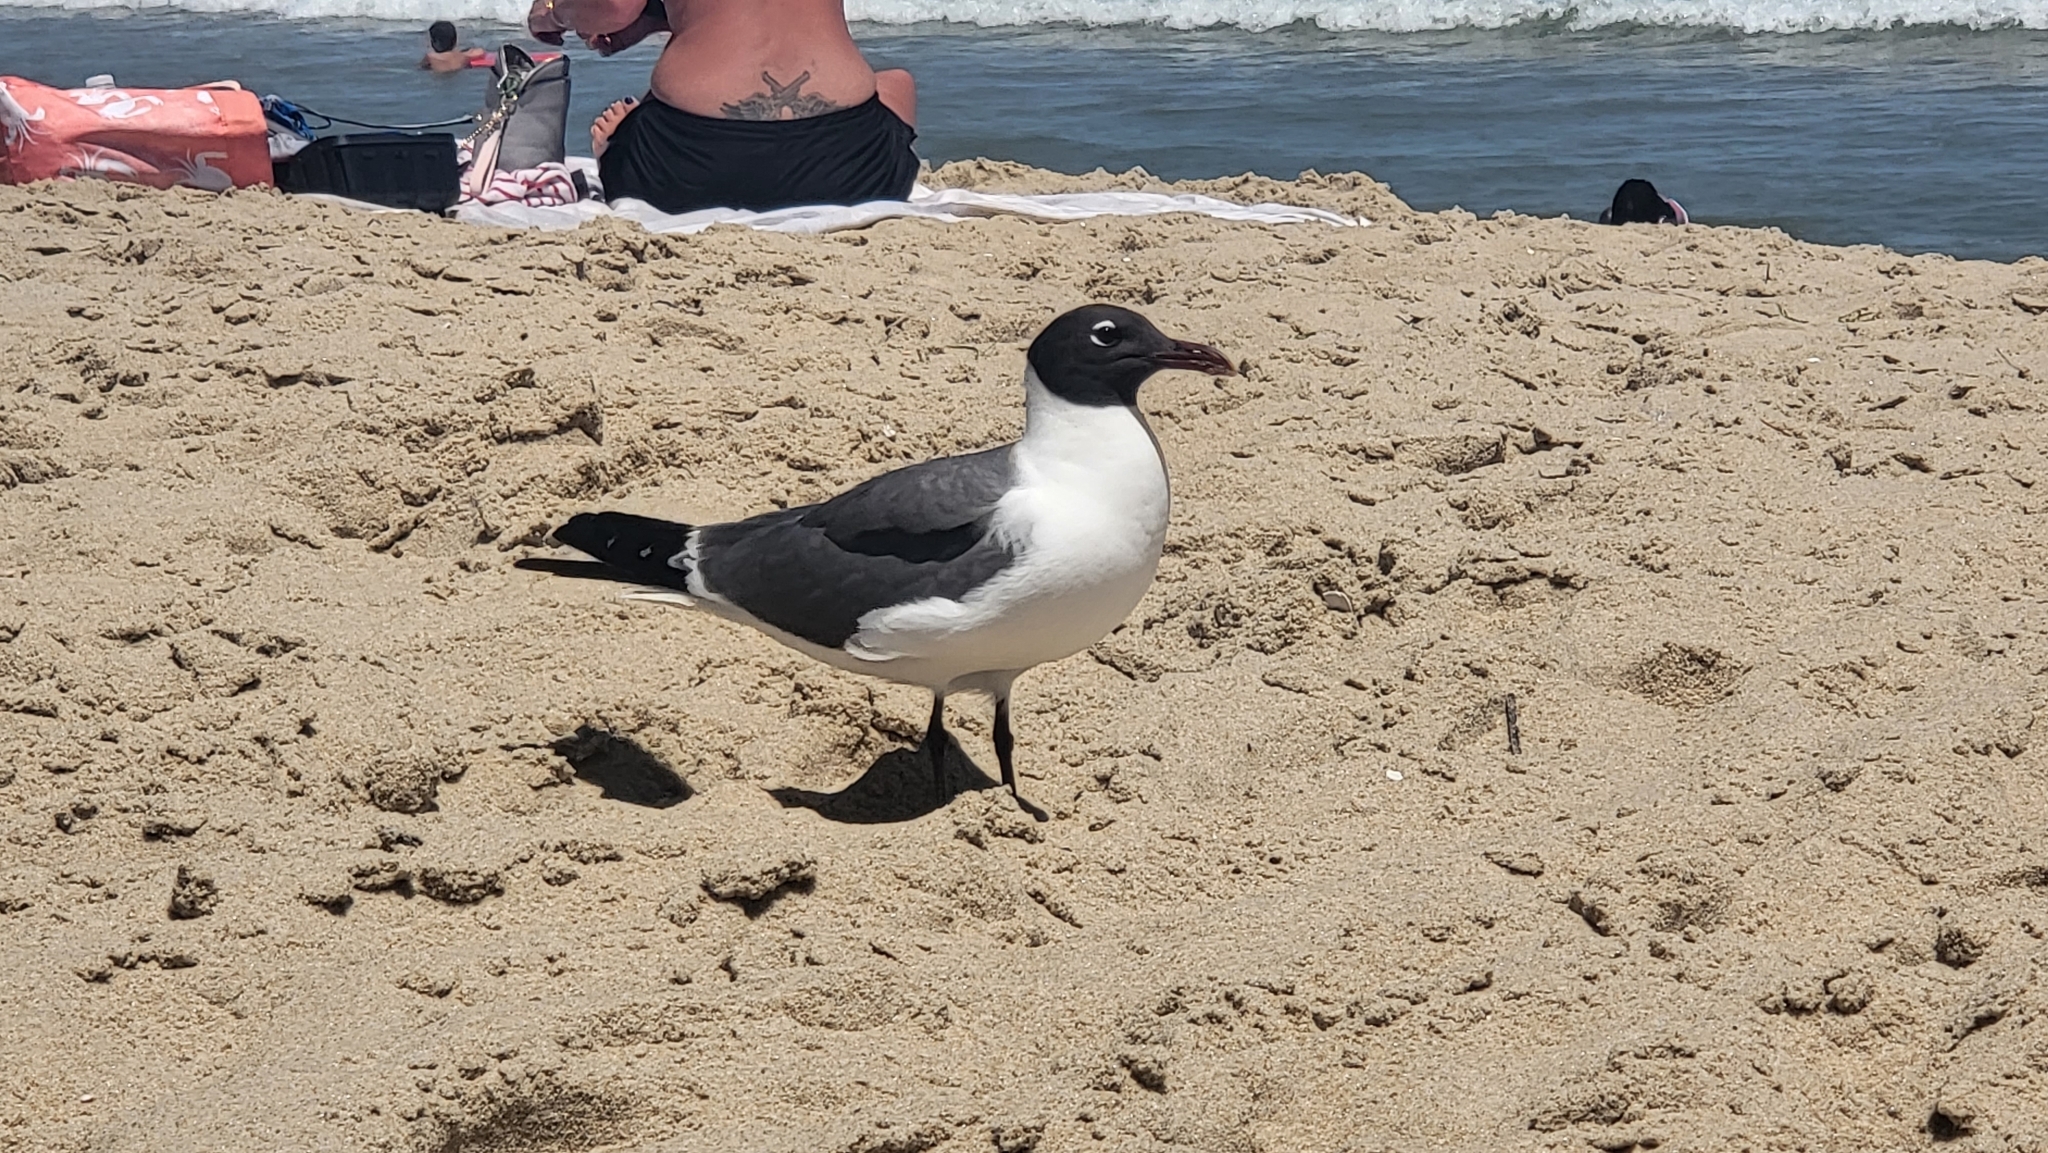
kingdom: Animalia
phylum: Chordata
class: Aves
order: Charadriiformes
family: Laridae
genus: Leucophaeus
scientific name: Leucophaeus atricilla
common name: Laughing gull
